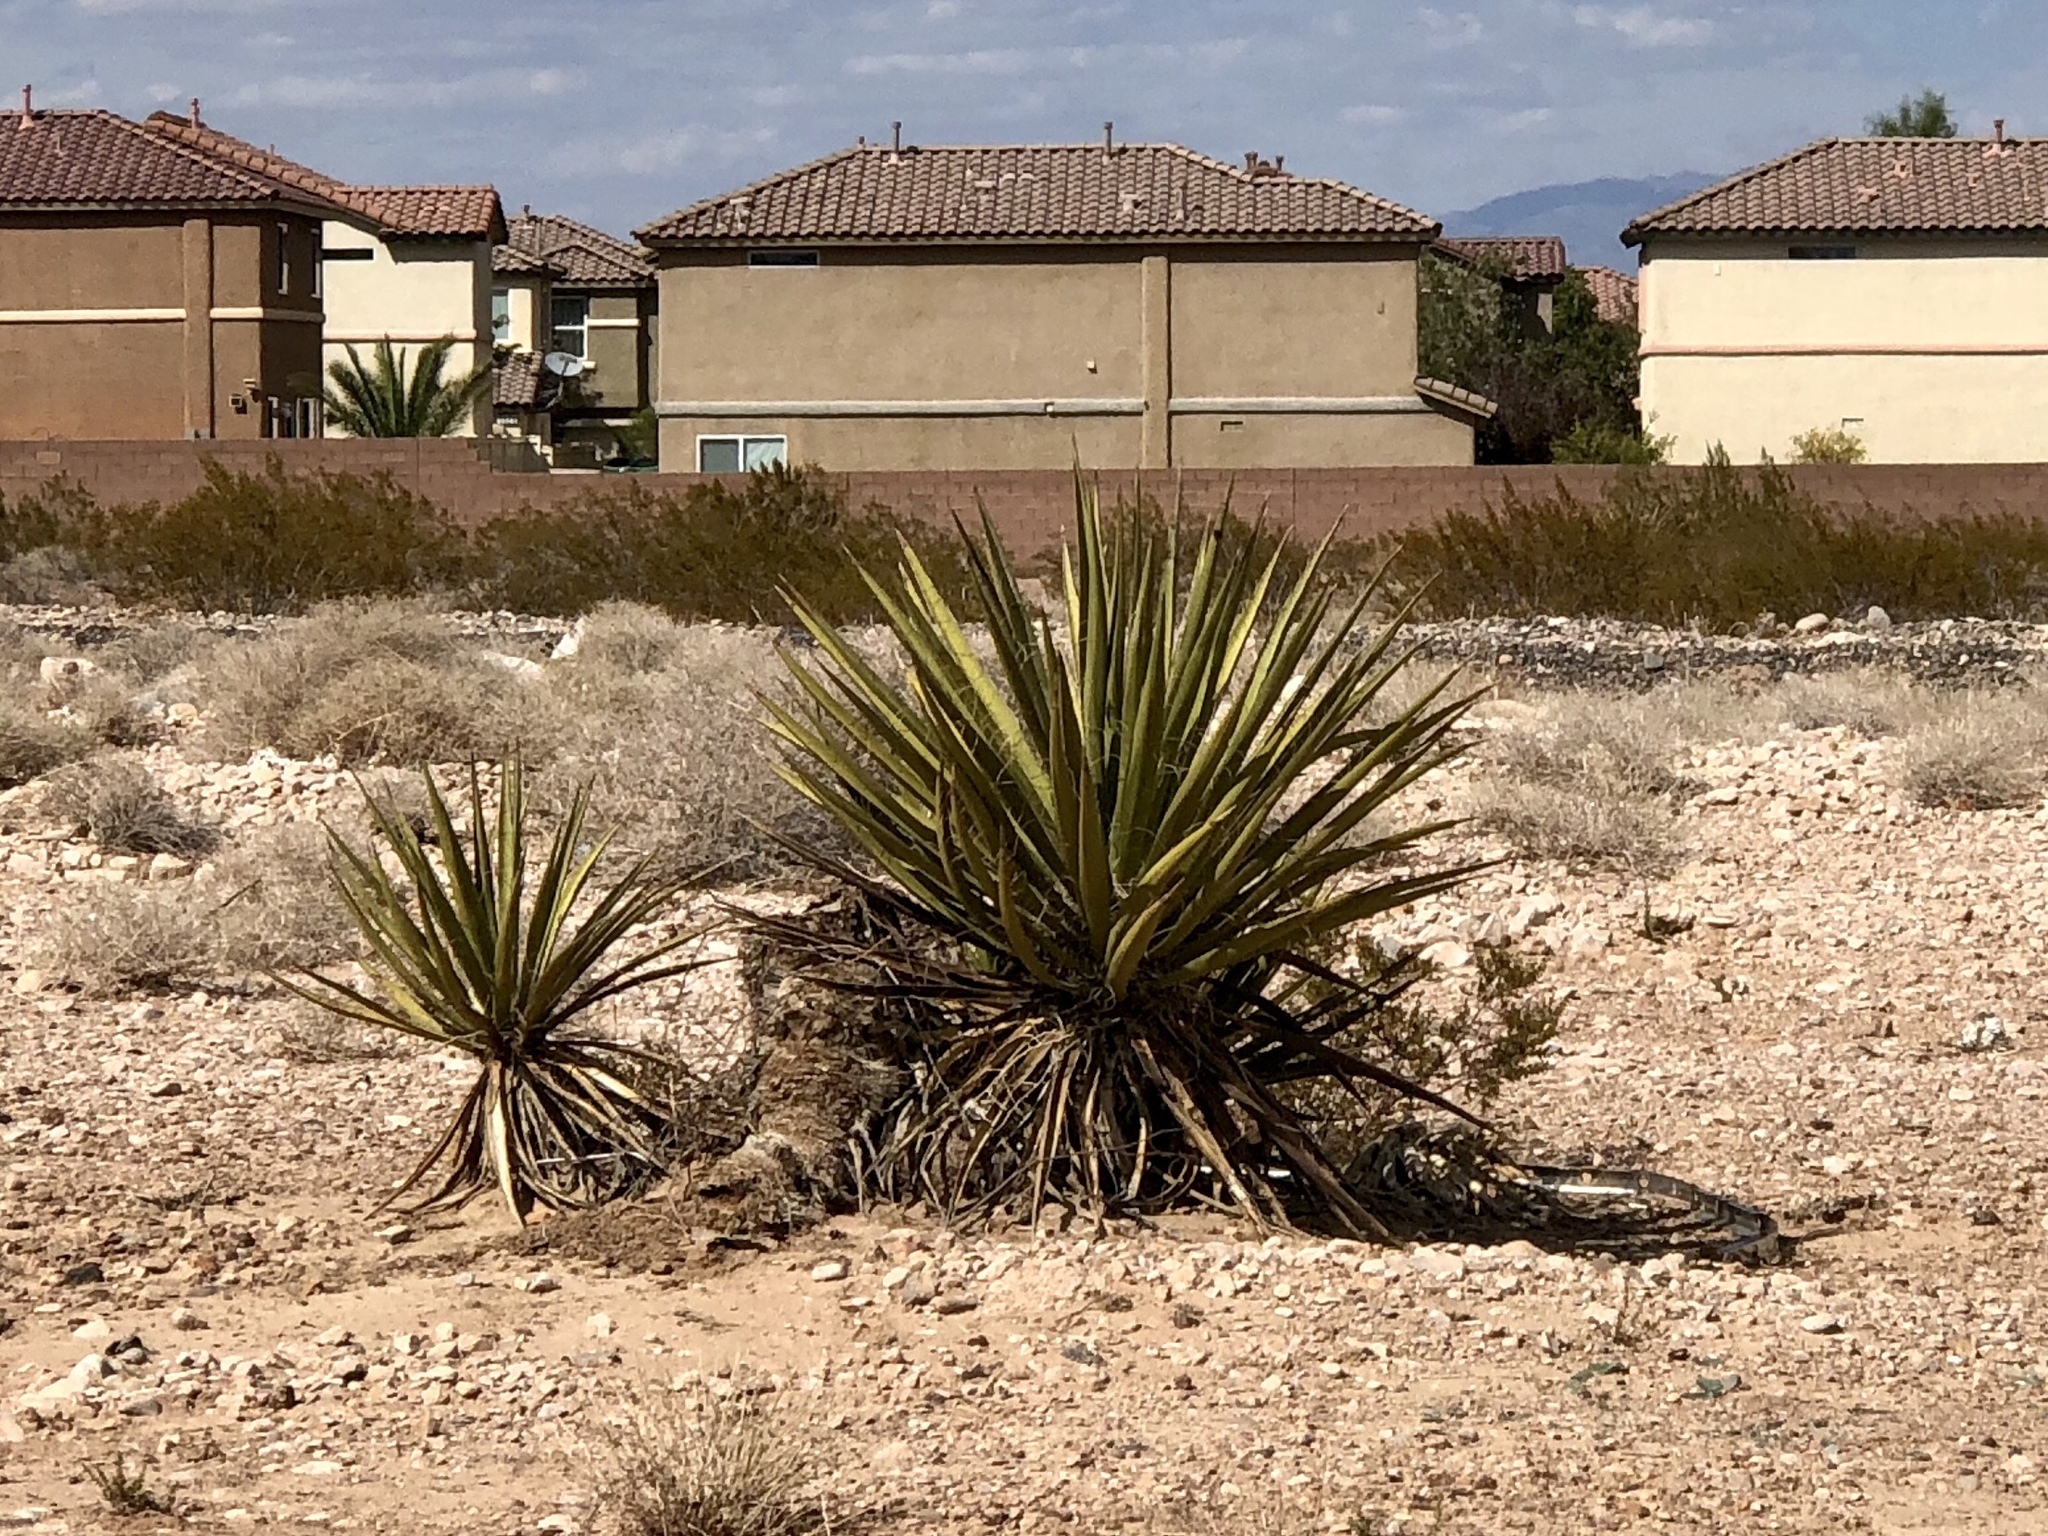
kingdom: Plantae
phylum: Tracheophyta
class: Liliopsida
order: Asparagales
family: Asparagaceae
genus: Yucca
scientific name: Yucca schidigera
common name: Mojave yucca
